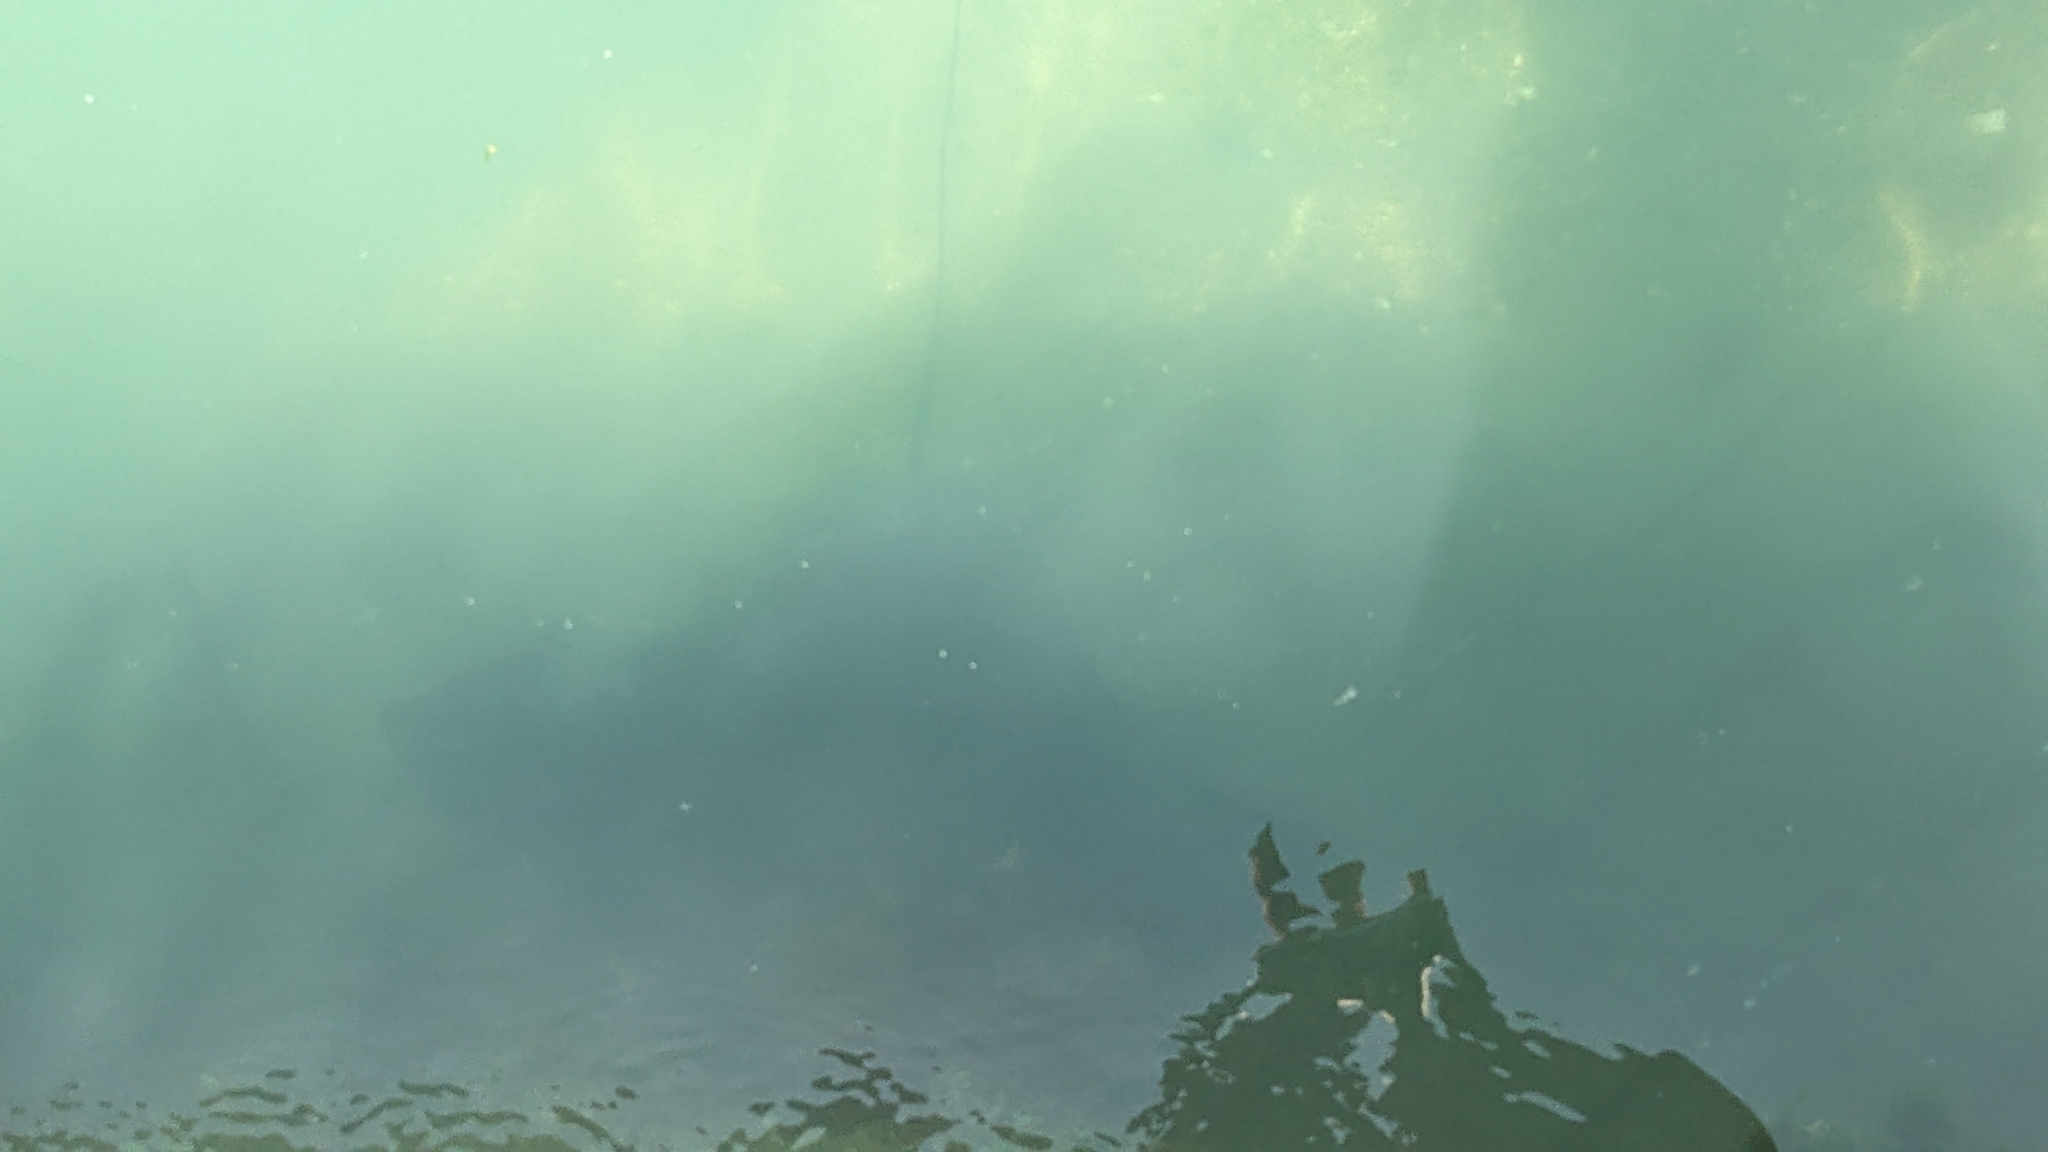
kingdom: Animalia
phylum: Chordata
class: Elasmobranchii
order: Myliobatiformes
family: Myliobatidae
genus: Myliobatis
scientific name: Myliobatis tenuicaudatus
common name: Eagle ray
